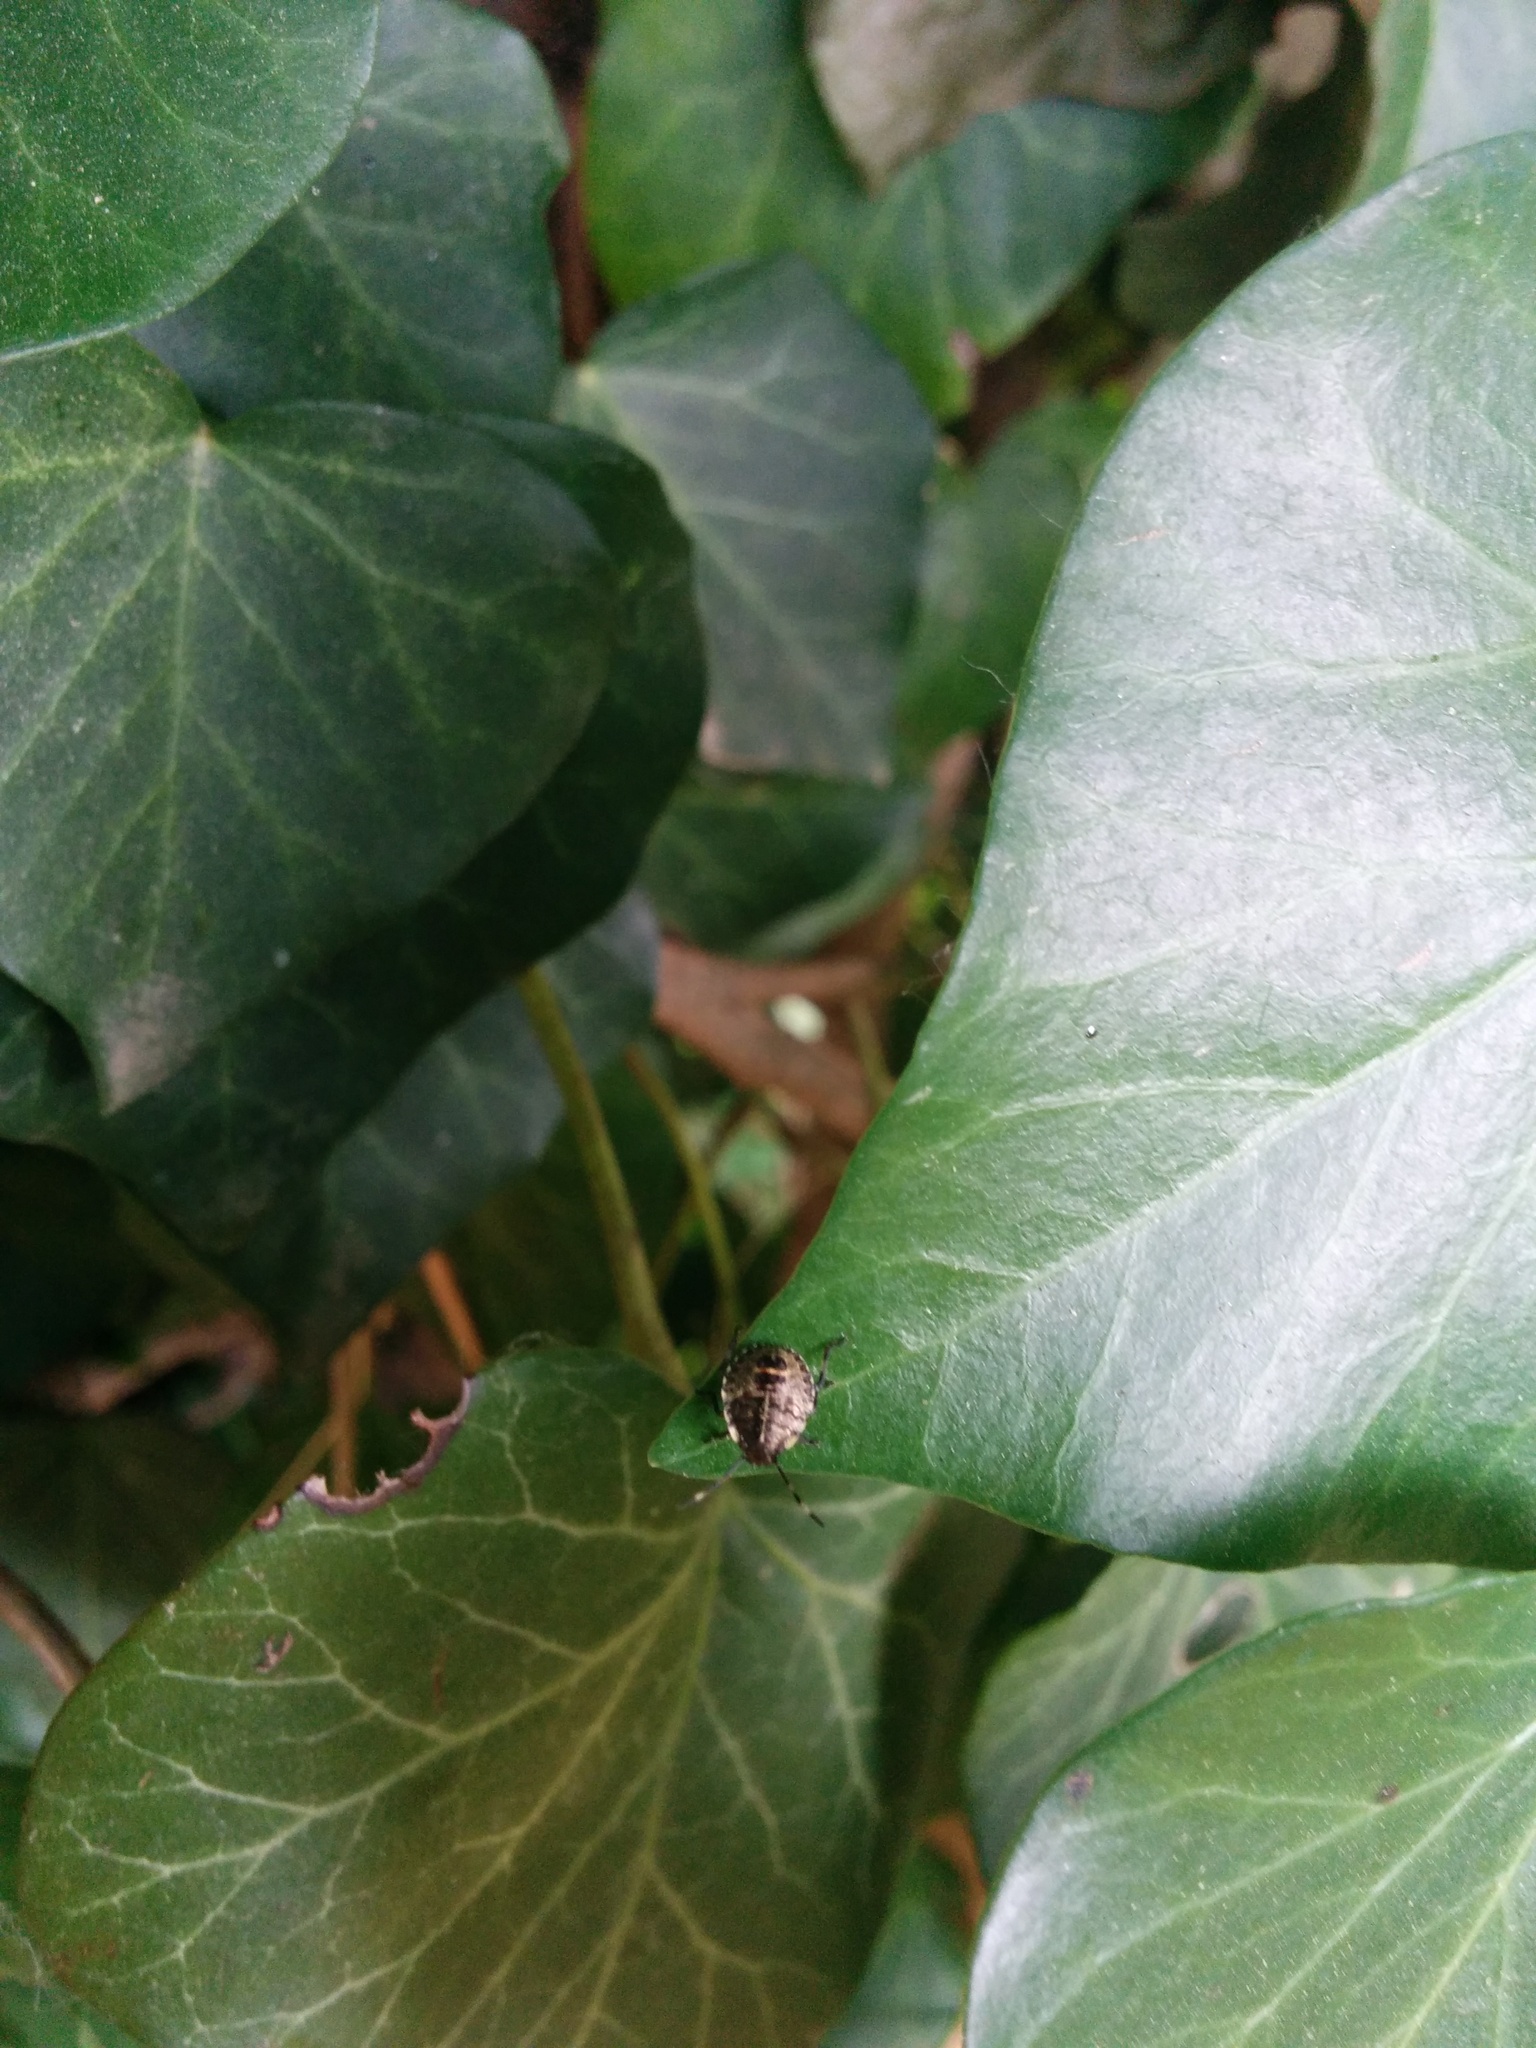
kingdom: Animalia
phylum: Arthropoda
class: Insecta
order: Hemiptera
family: Pentatomidae
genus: Rhaphigaster
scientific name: Rhaphigaster nebulosa
